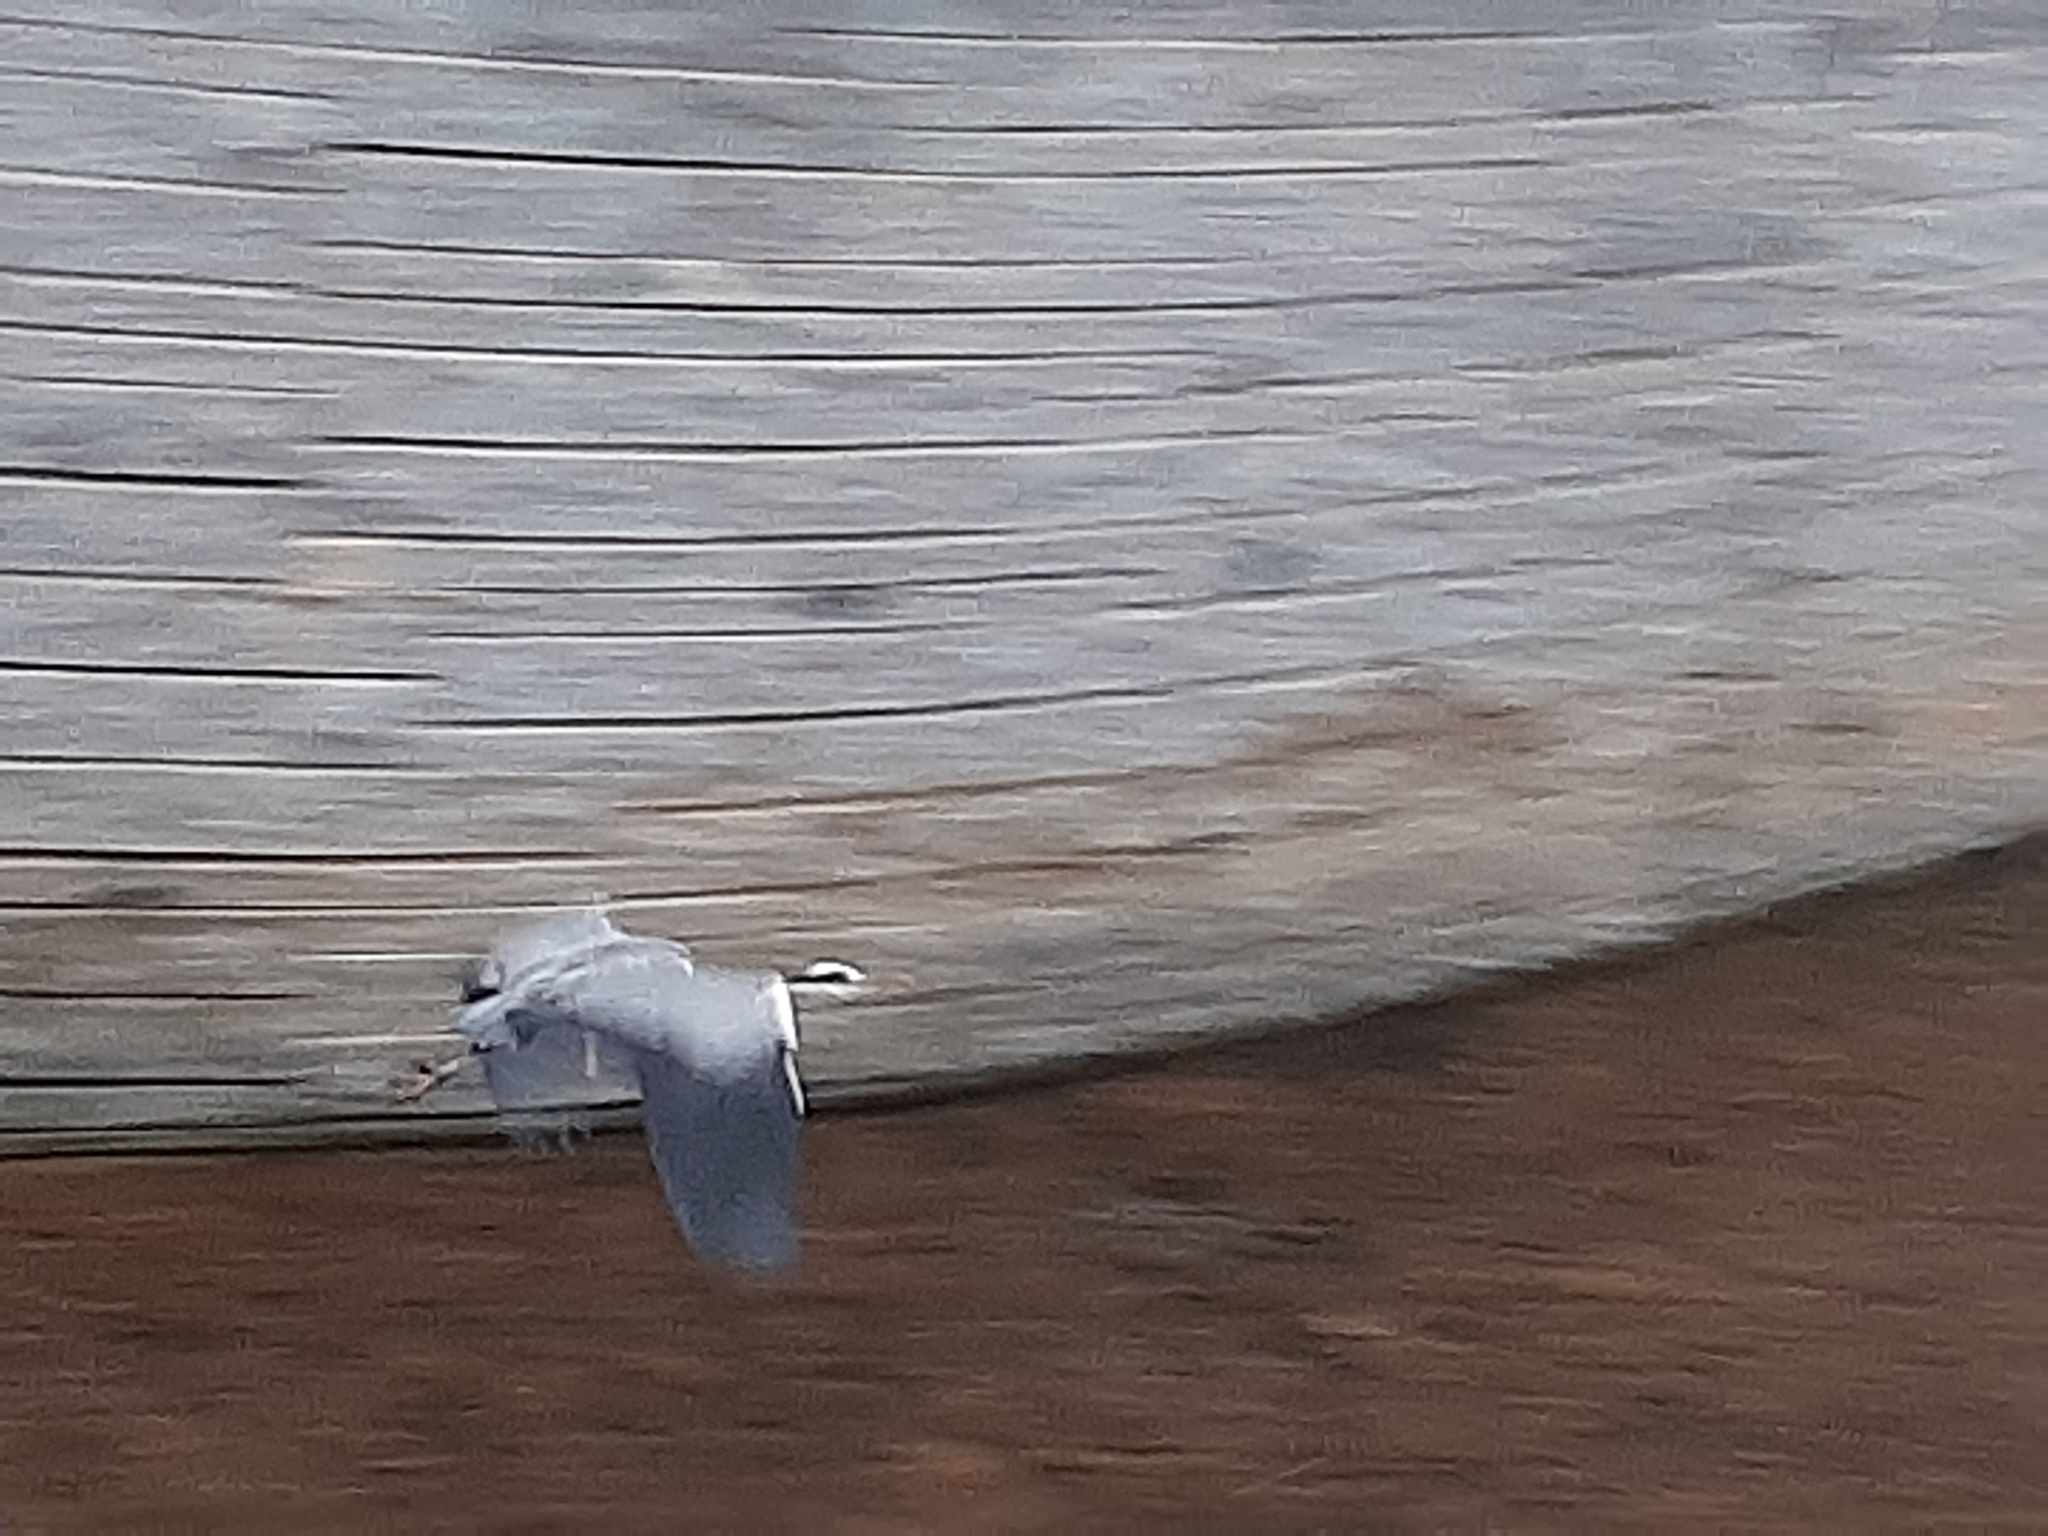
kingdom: Animalia
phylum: Chordata
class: Aves
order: Pelecaniformes
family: Ardeidae
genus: Ardea
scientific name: Ardea cinerea
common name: Grey heron
